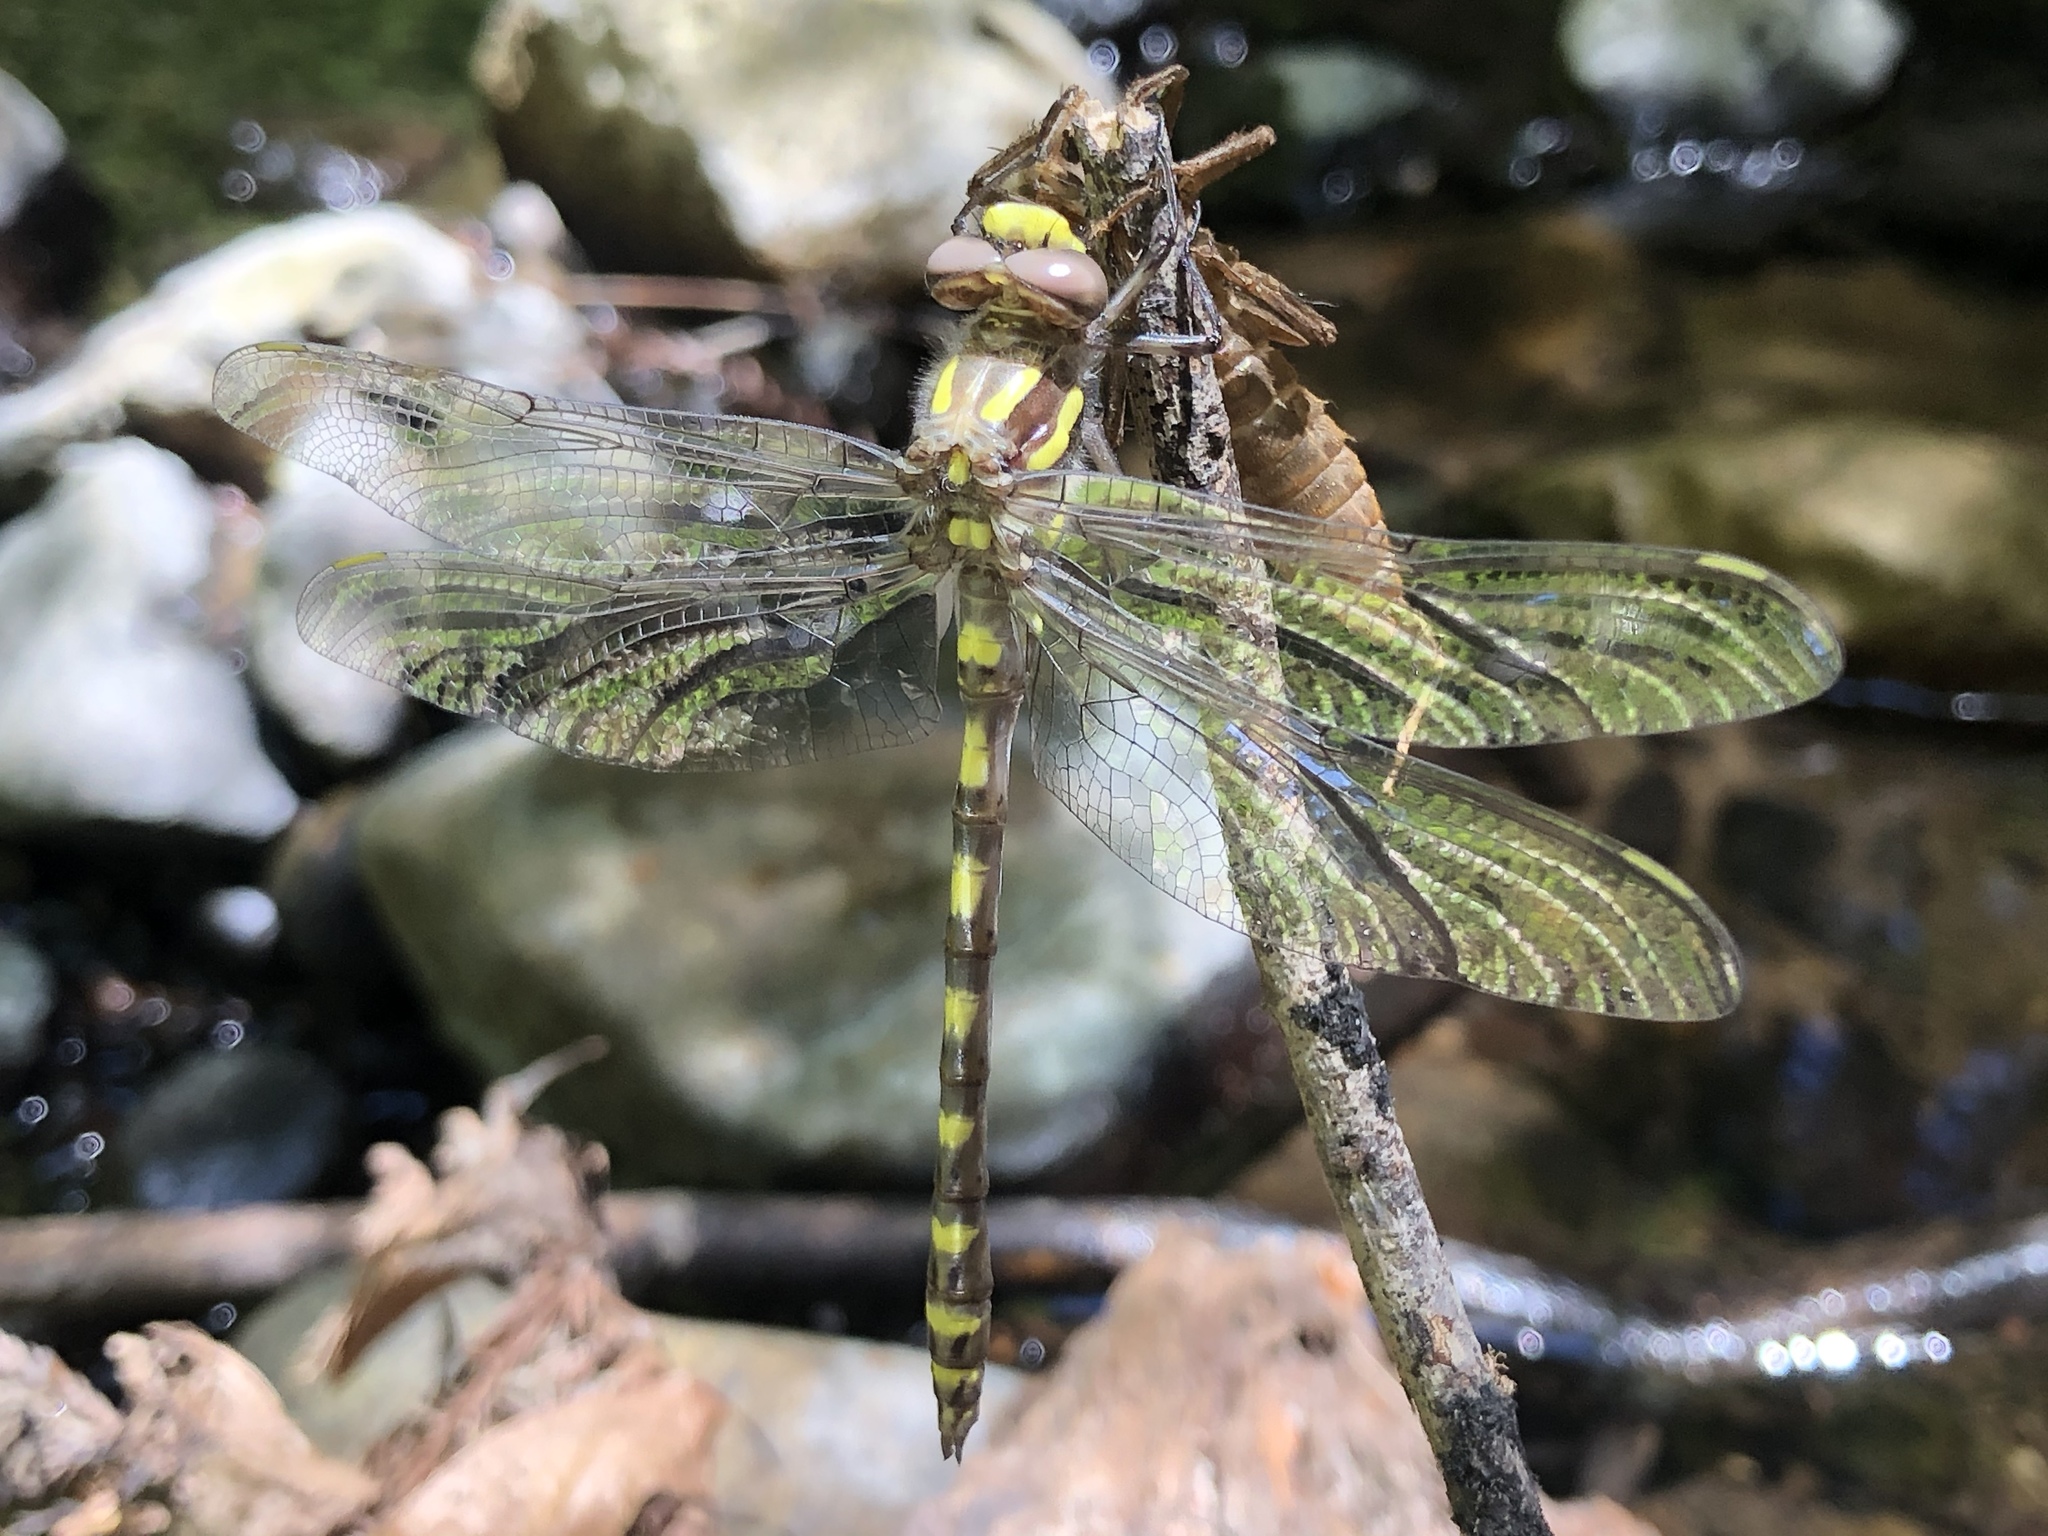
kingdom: Animalia
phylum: Arthropoda
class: Insecta
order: Odonata
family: Cordulegastridae
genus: Cordulegaster
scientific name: Cordulegaster dorsalis
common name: Pacific spiketail
